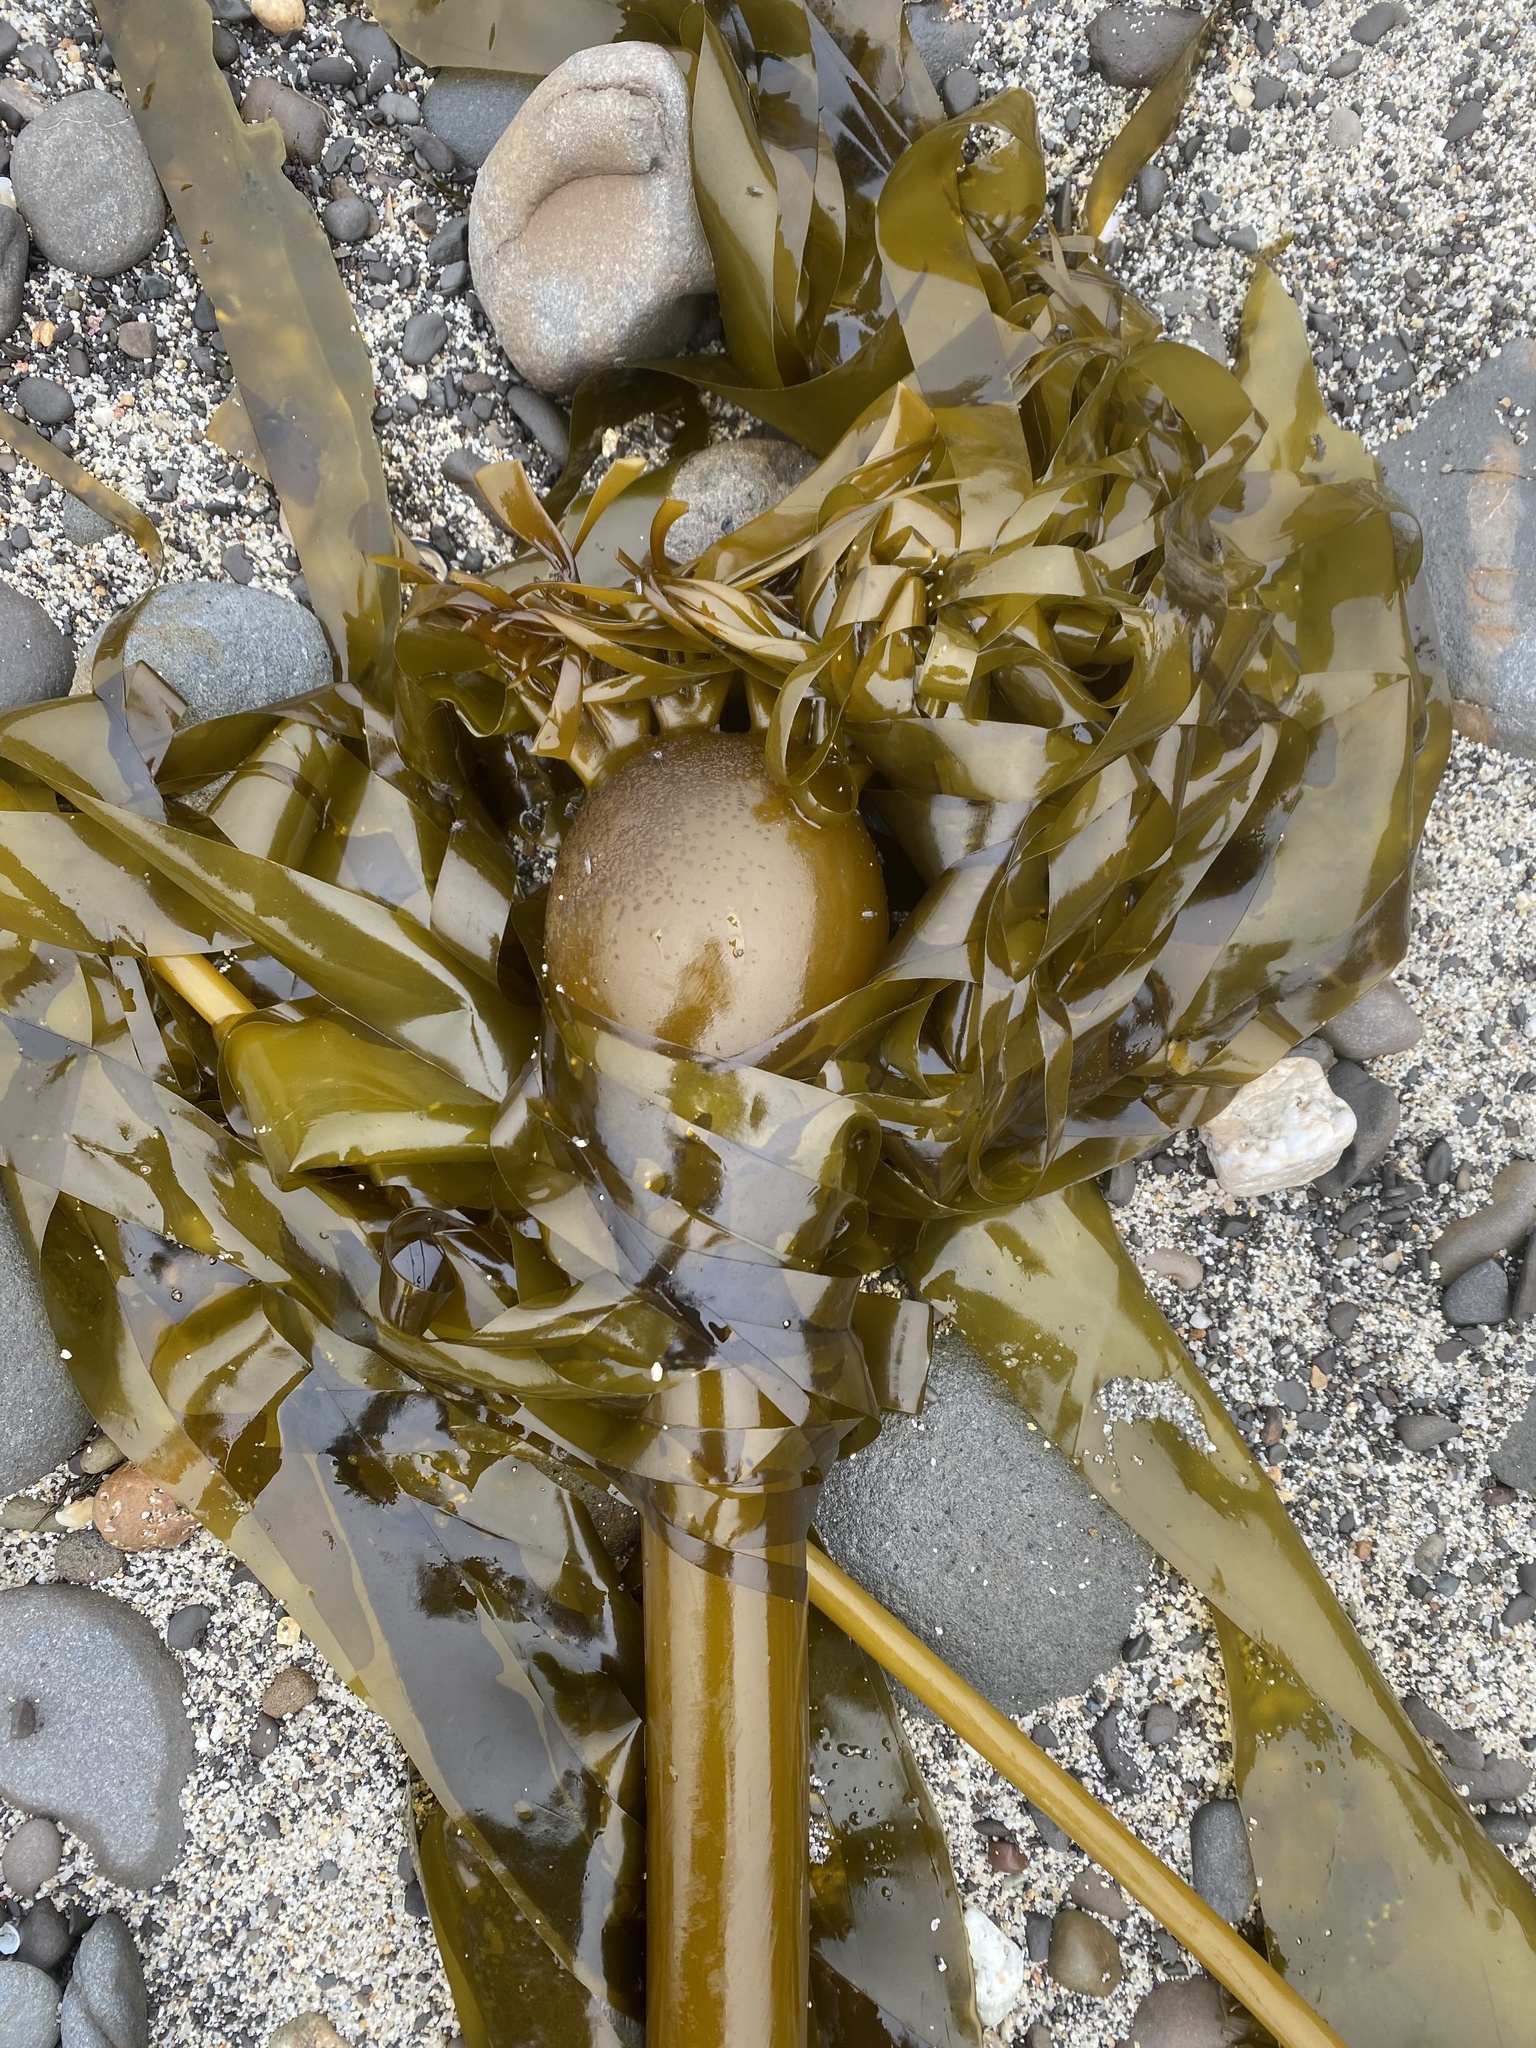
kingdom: Chromista
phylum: Ochrophyta
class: Phaeophyceae
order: Laminariales
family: Laminariaceae
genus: Nereocystis
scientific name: Nereocystis luetkeana
